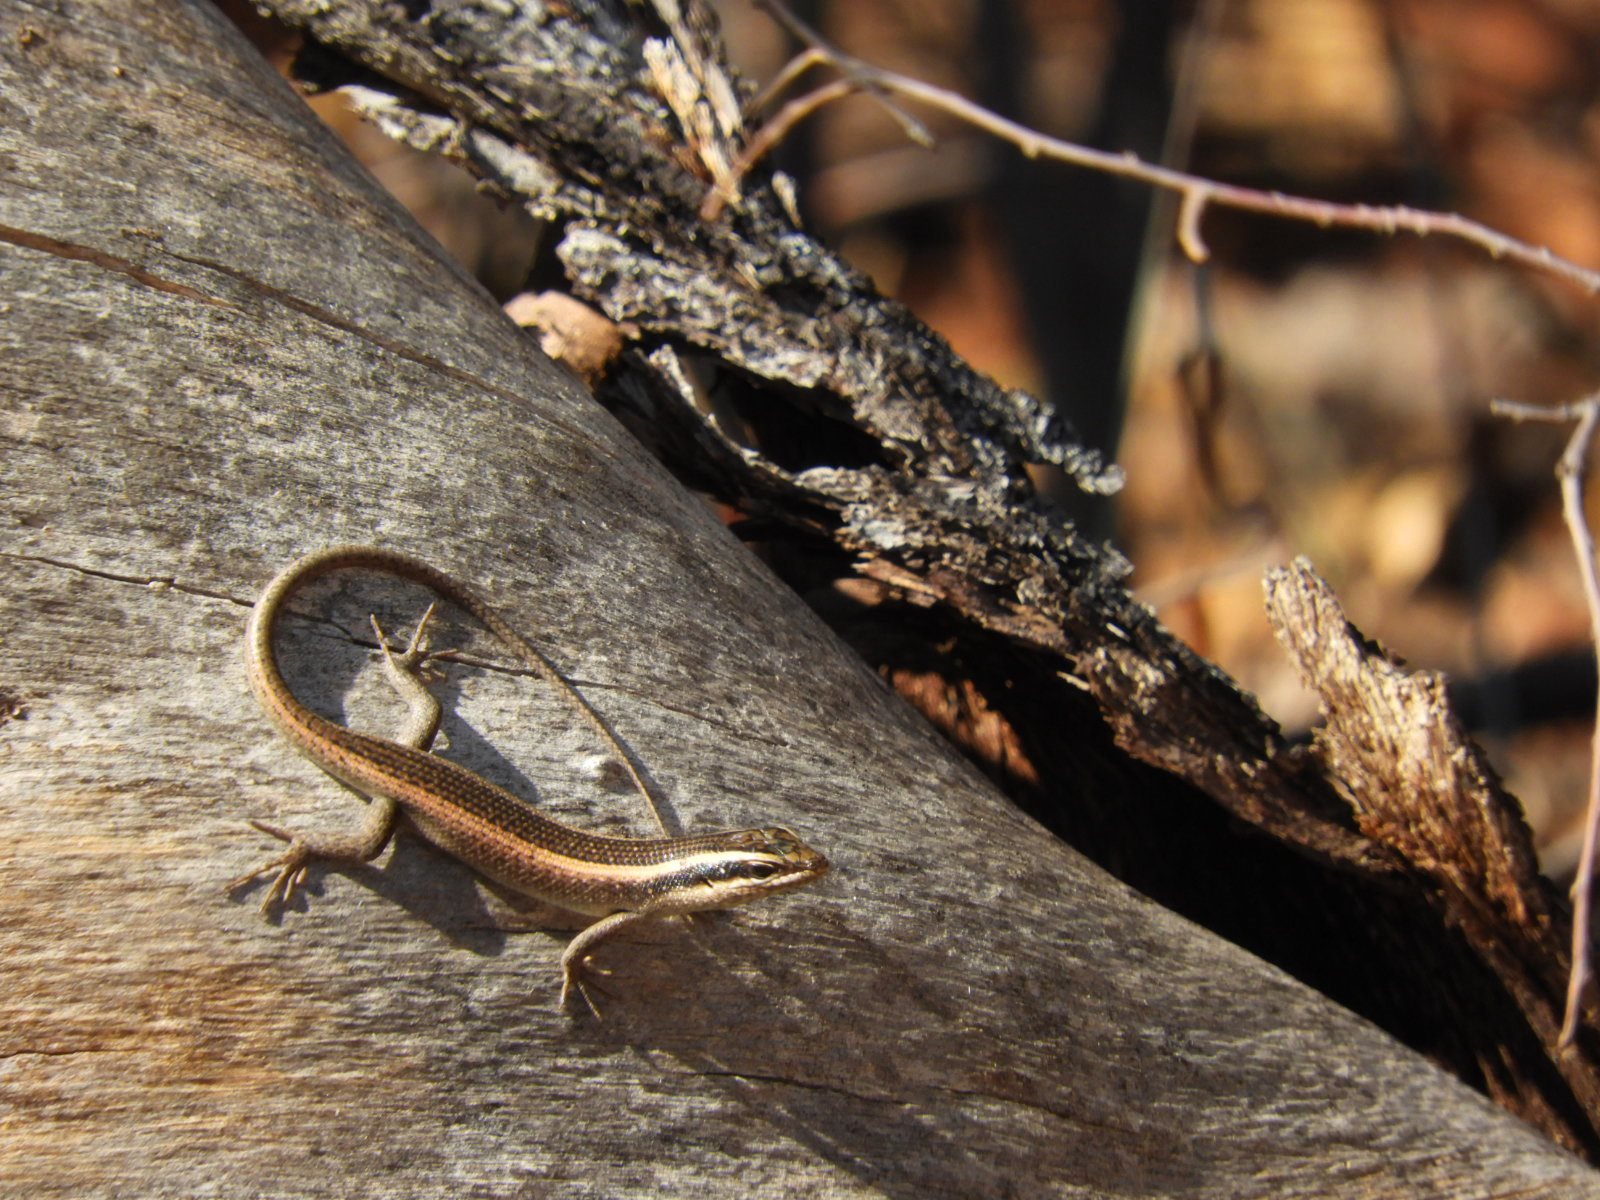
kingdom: Animalia
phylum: Chordata
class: Squamata
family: Scincidae
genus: Trachylepis
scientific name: Trachylepis striata
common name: African striped mabuya
